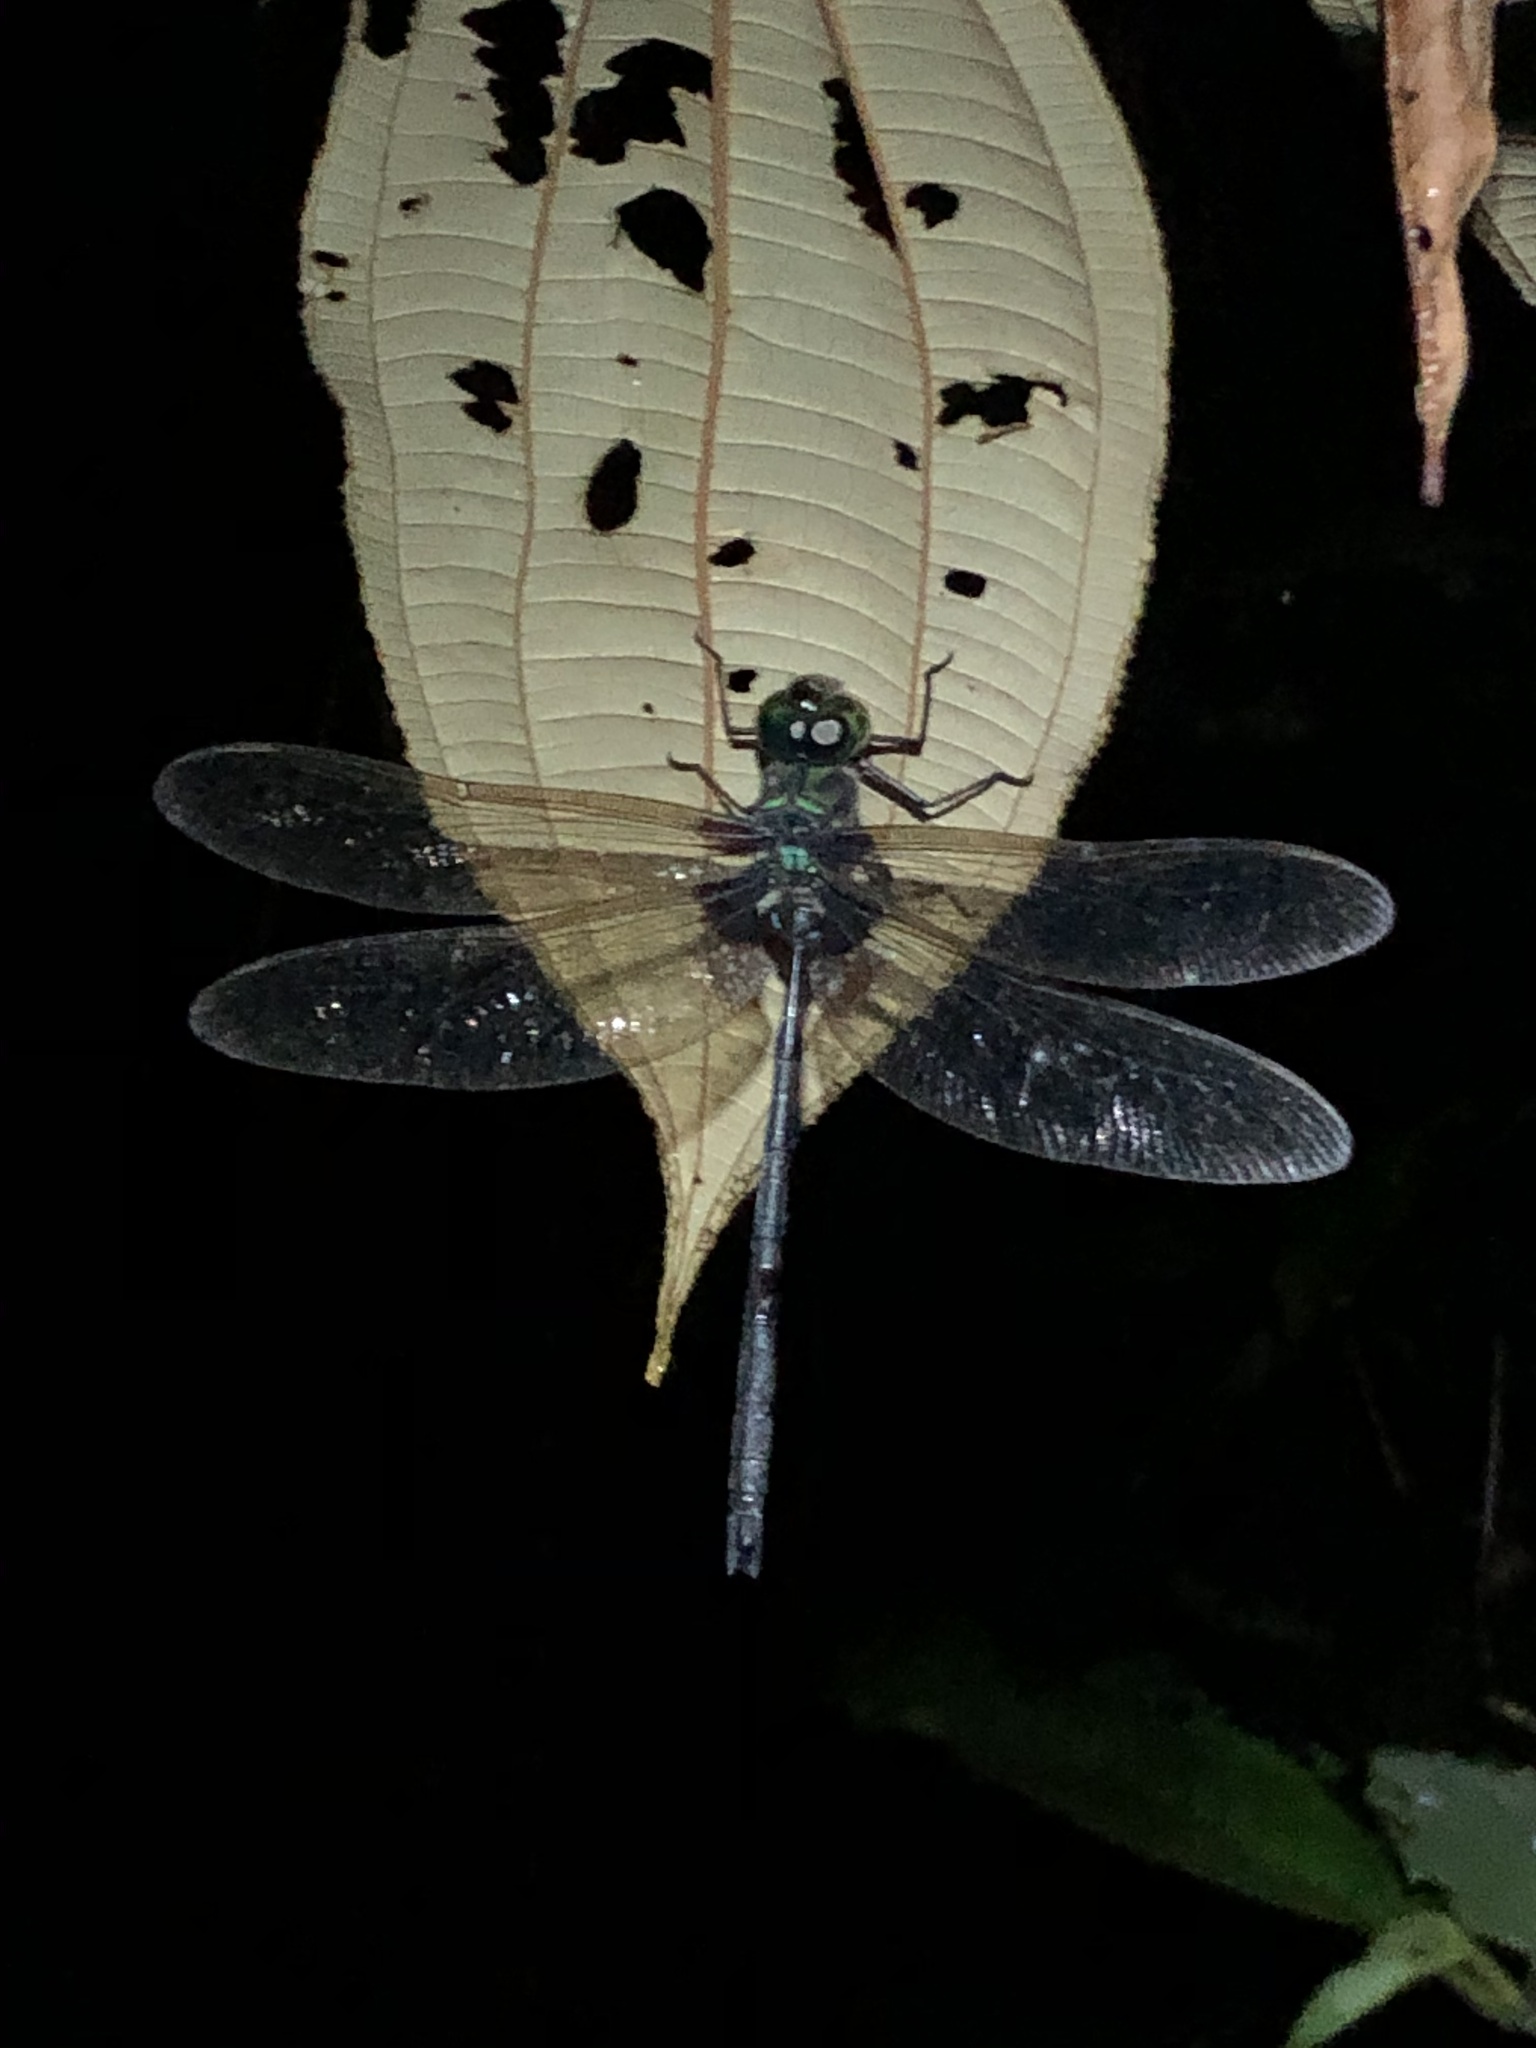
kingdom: Animalia
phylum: Arthropoda
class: Insecta
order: Odonata
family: Aeshnidae
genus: Gynacantha
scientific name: Gynacantha membranalis
